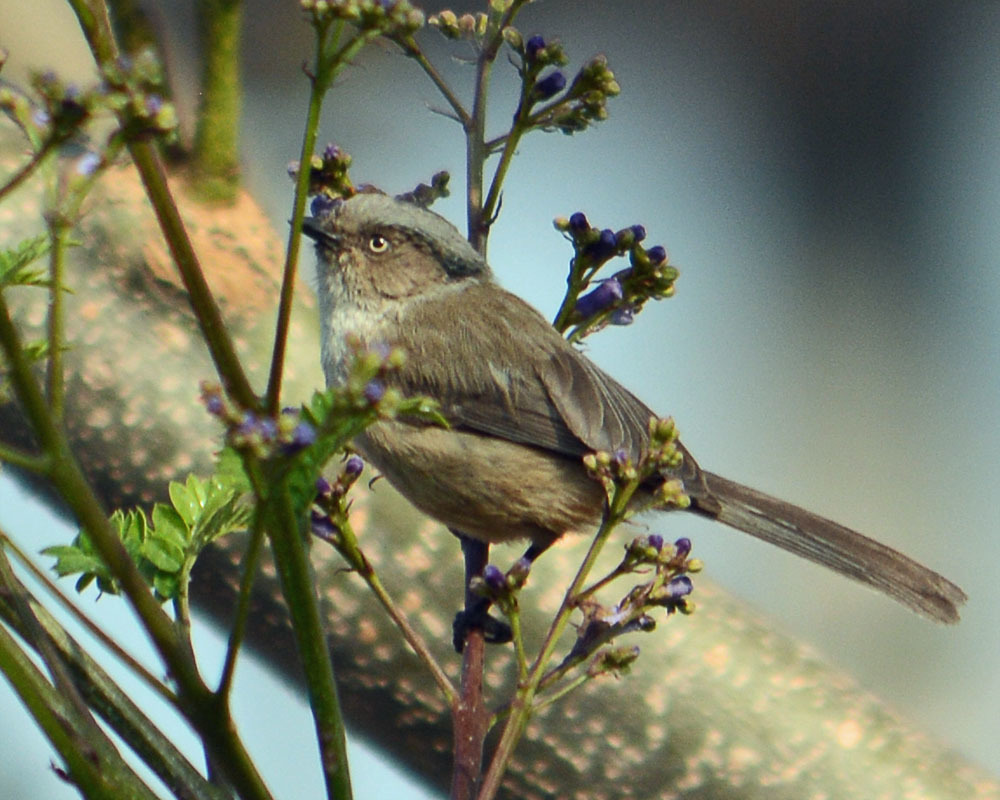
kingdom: Animalia
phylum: Chordata
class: Aves
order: Passeriformes
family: Aegithalidae
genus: Psaltriparus
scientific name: Psaltriparus minimus
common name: American bushtit
